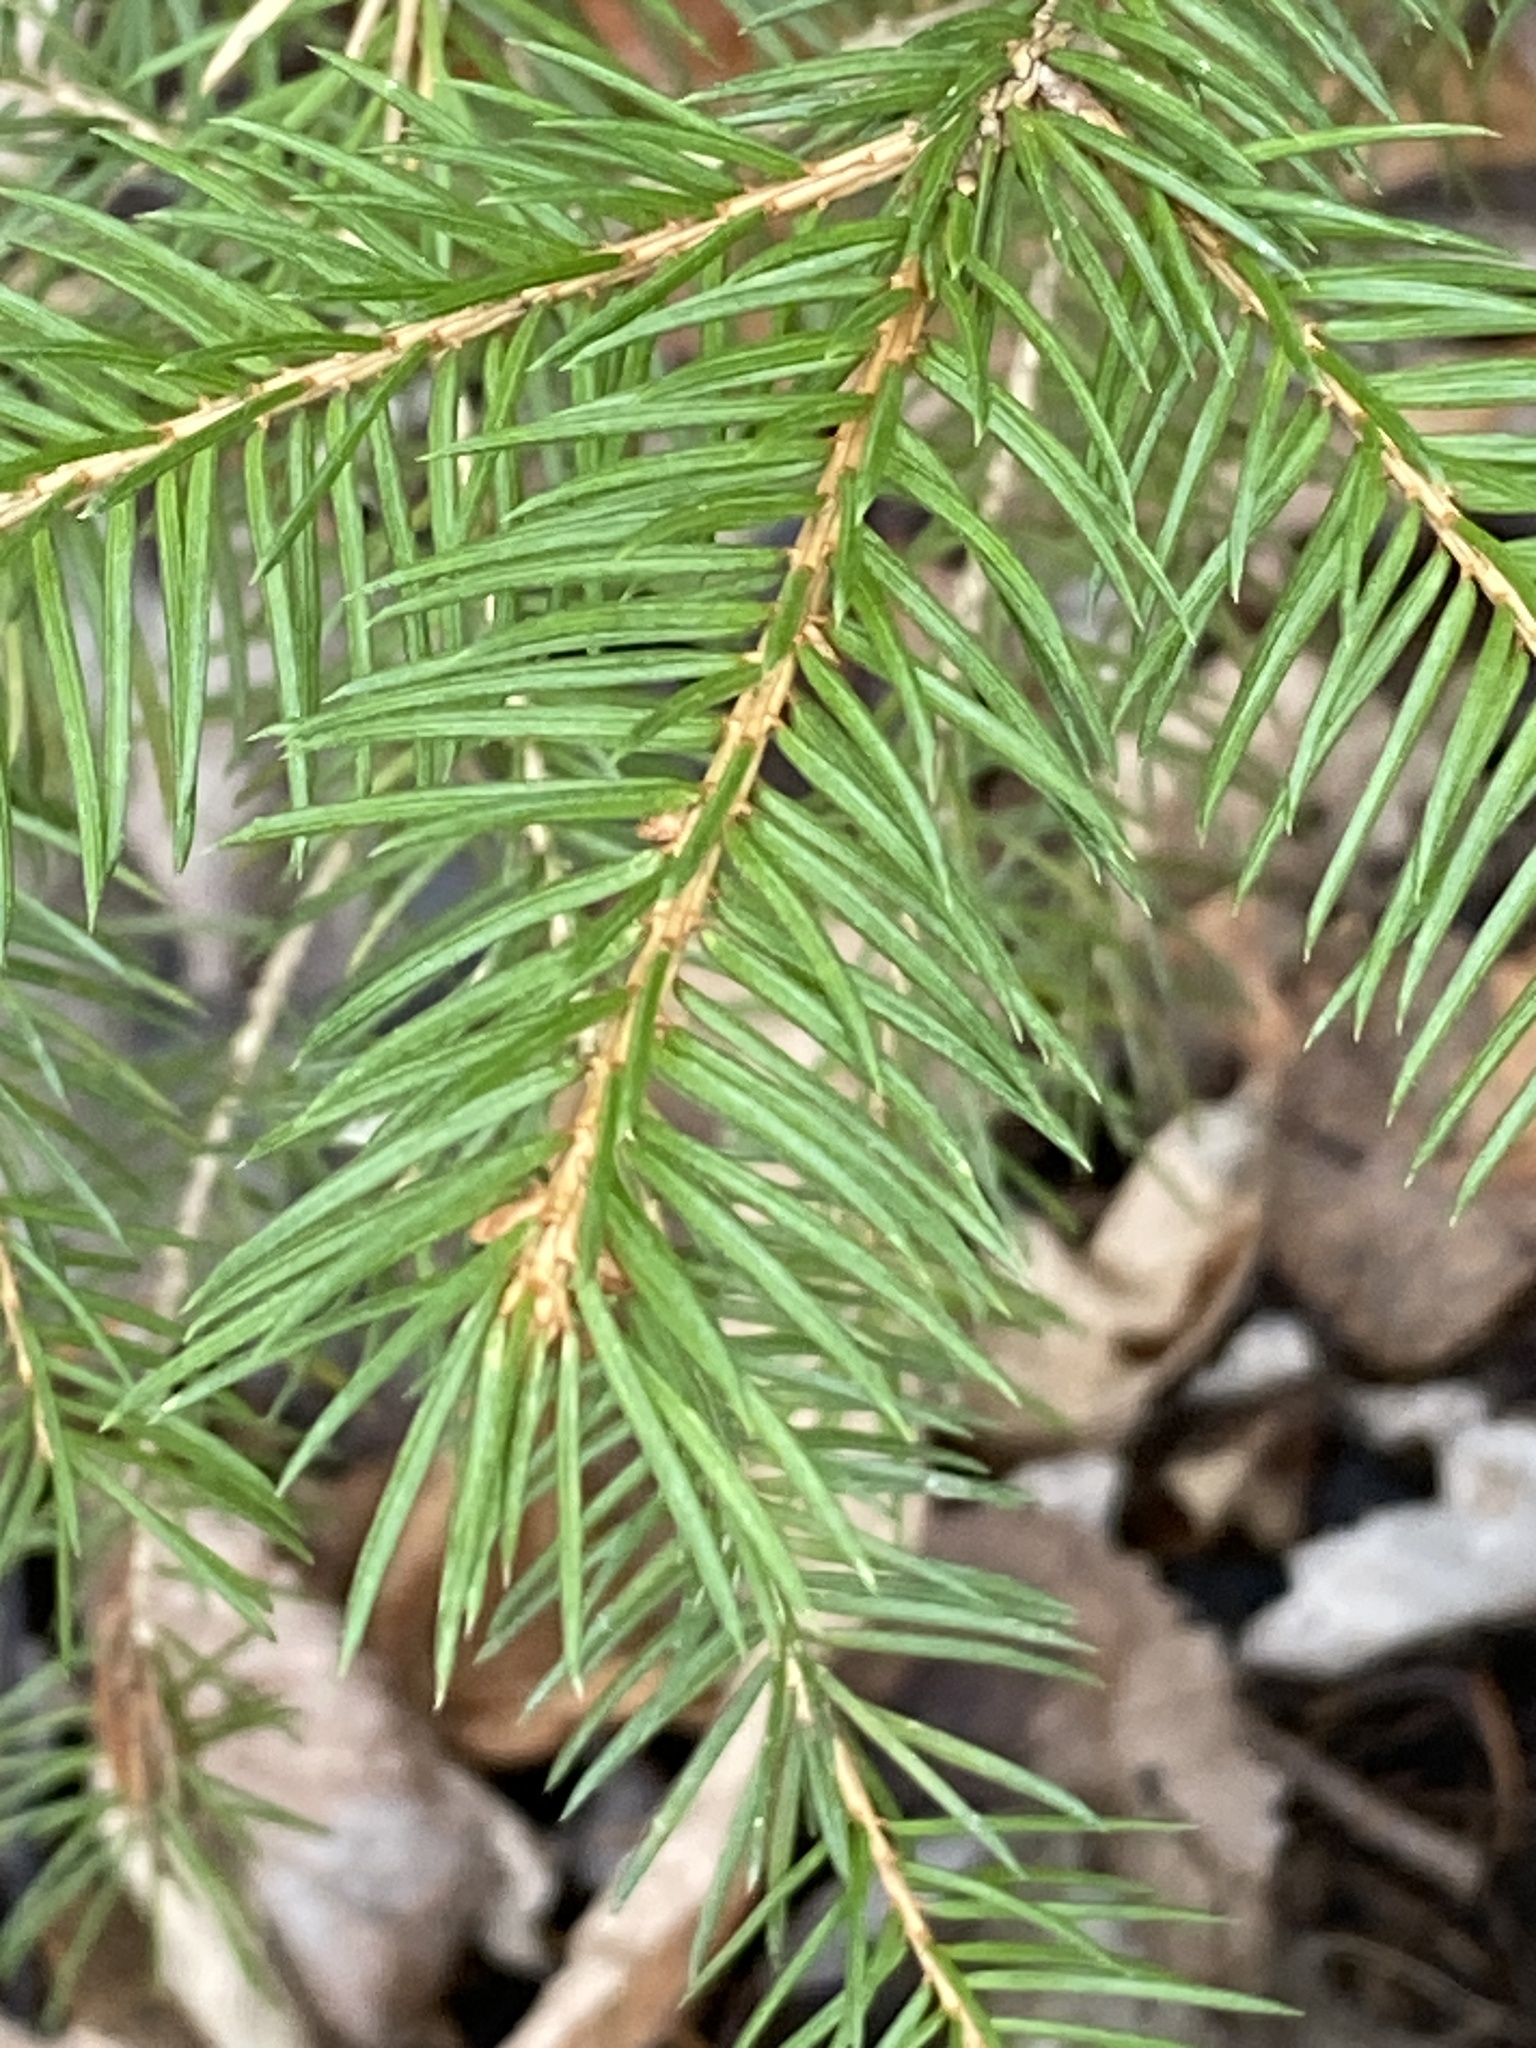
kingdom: Plantae
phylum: Tracheophyta
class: Pinopsida
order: Pinales
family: Pinaceae
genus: Picea
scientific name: Picea glauca
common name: White spruce
